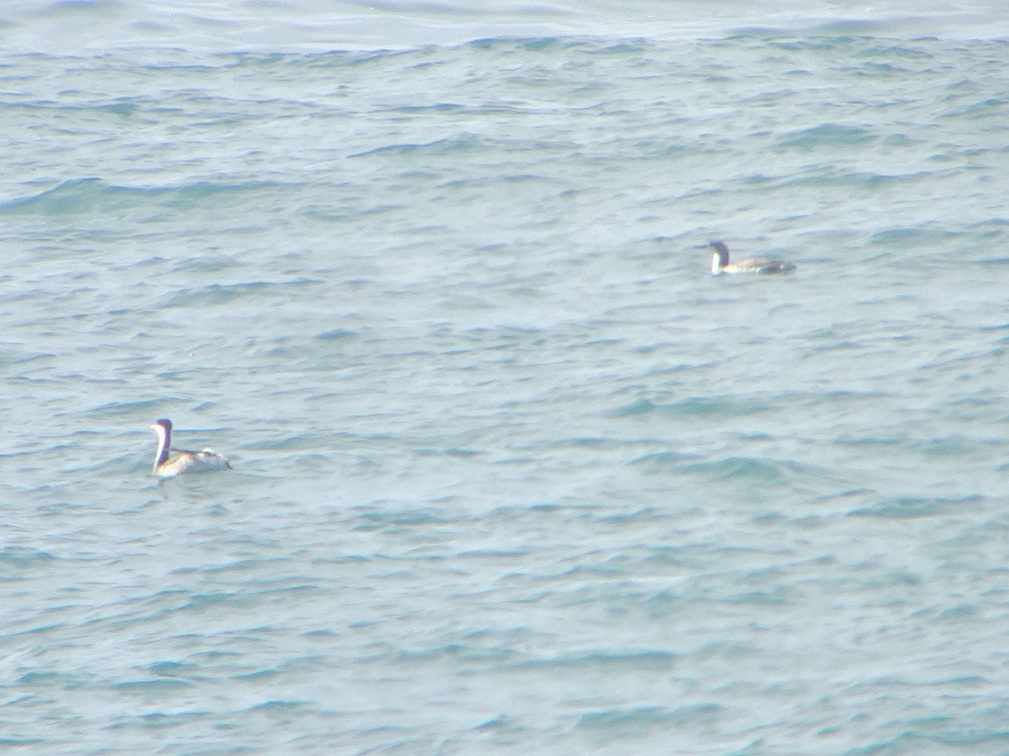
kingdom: Animalia
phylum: Chordata
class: Aves
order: Podicipediformes
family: Podicipedidae
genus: Aechmophorus
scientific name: Aechmophorus occidentalis
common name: Western grebe
